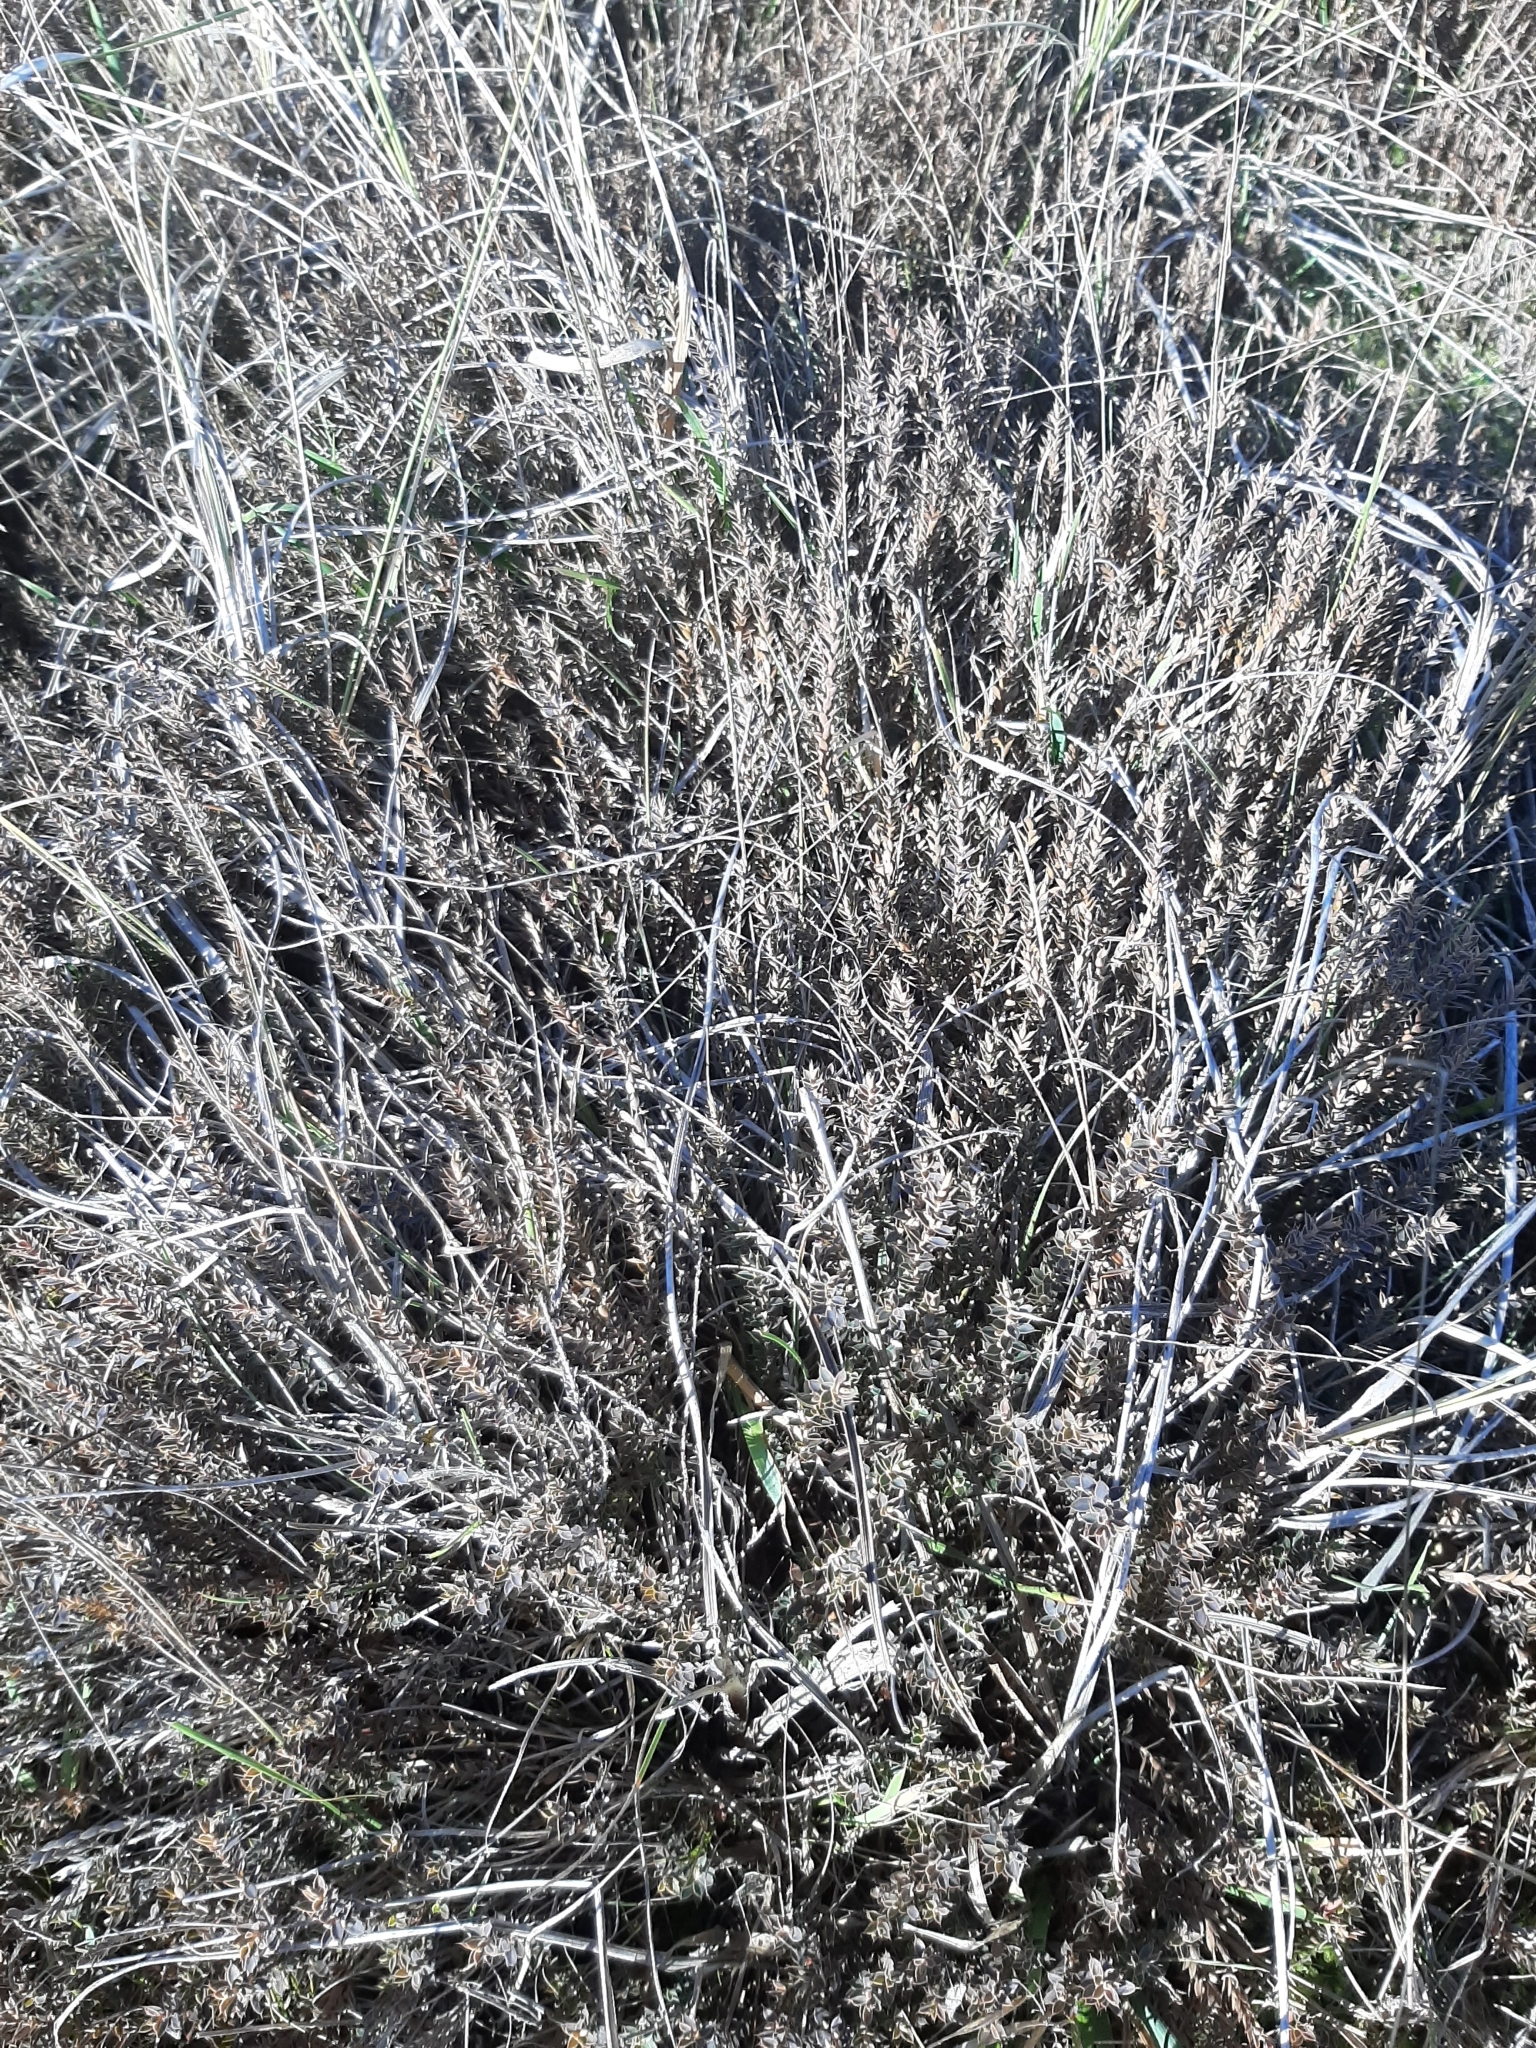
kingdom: Plantae
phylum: Tracheophyta
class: Magnoliopsida
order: Ericales
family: Ericaceae
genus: Styphelia
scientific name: Styphelia nesophila
